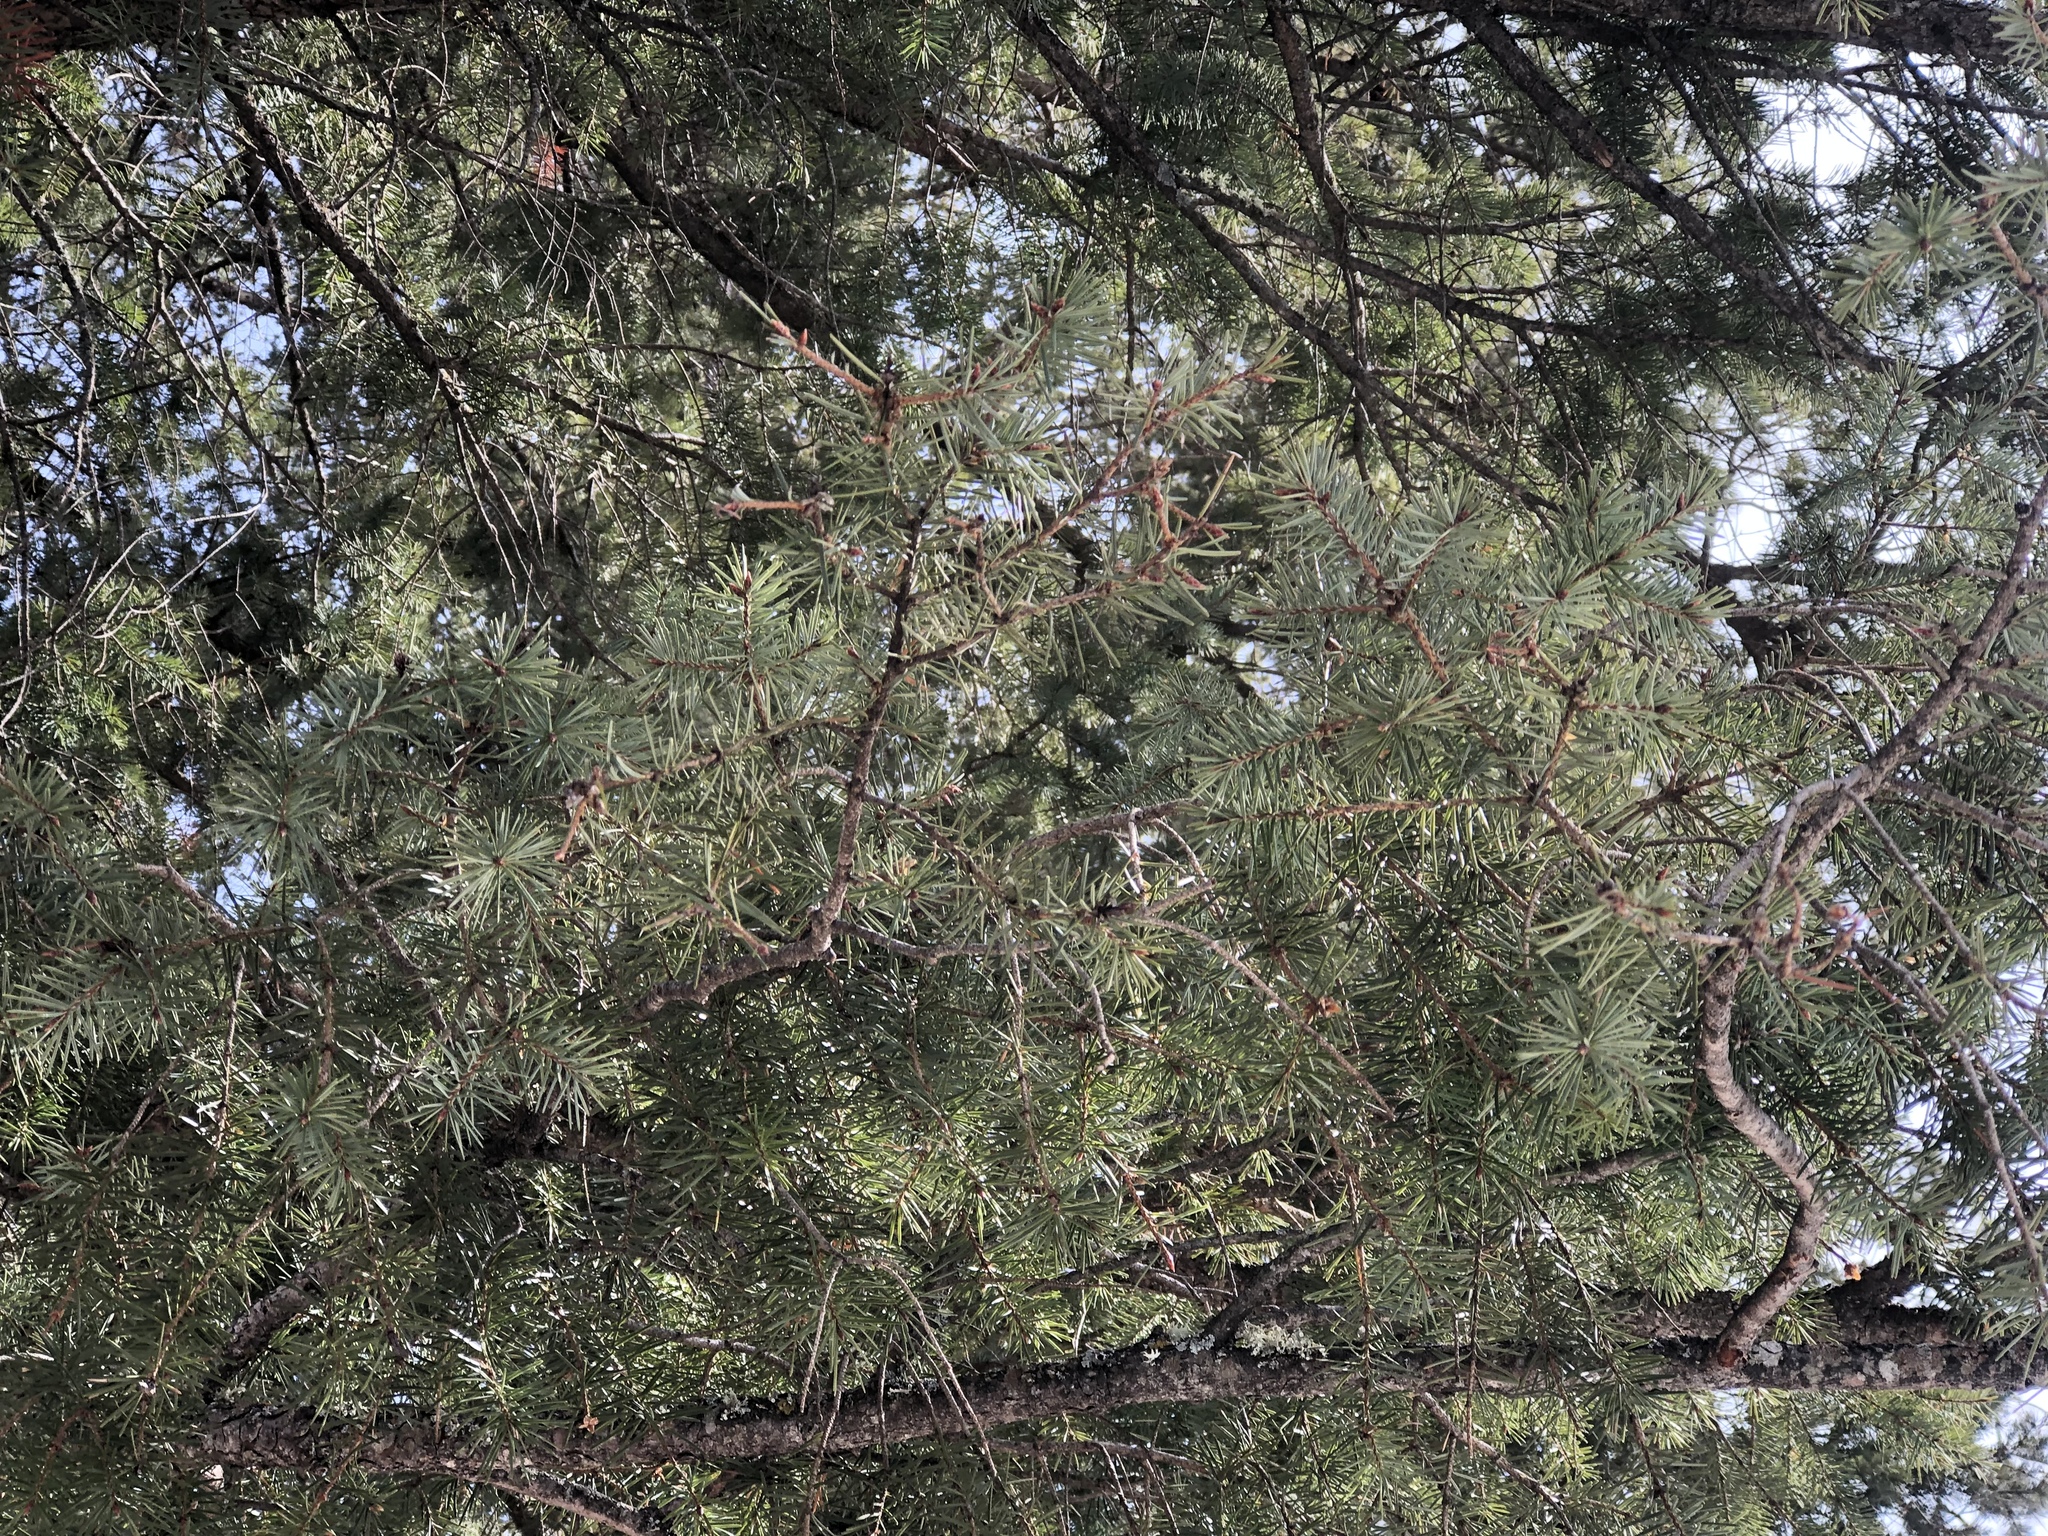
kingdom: Plantae
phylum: Tracheophyta
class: Pinopsida
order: Pinales
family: Pinaceae
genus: Pseudotsuga
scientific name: Pseudotsuga menziesii
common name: Douglas fir
